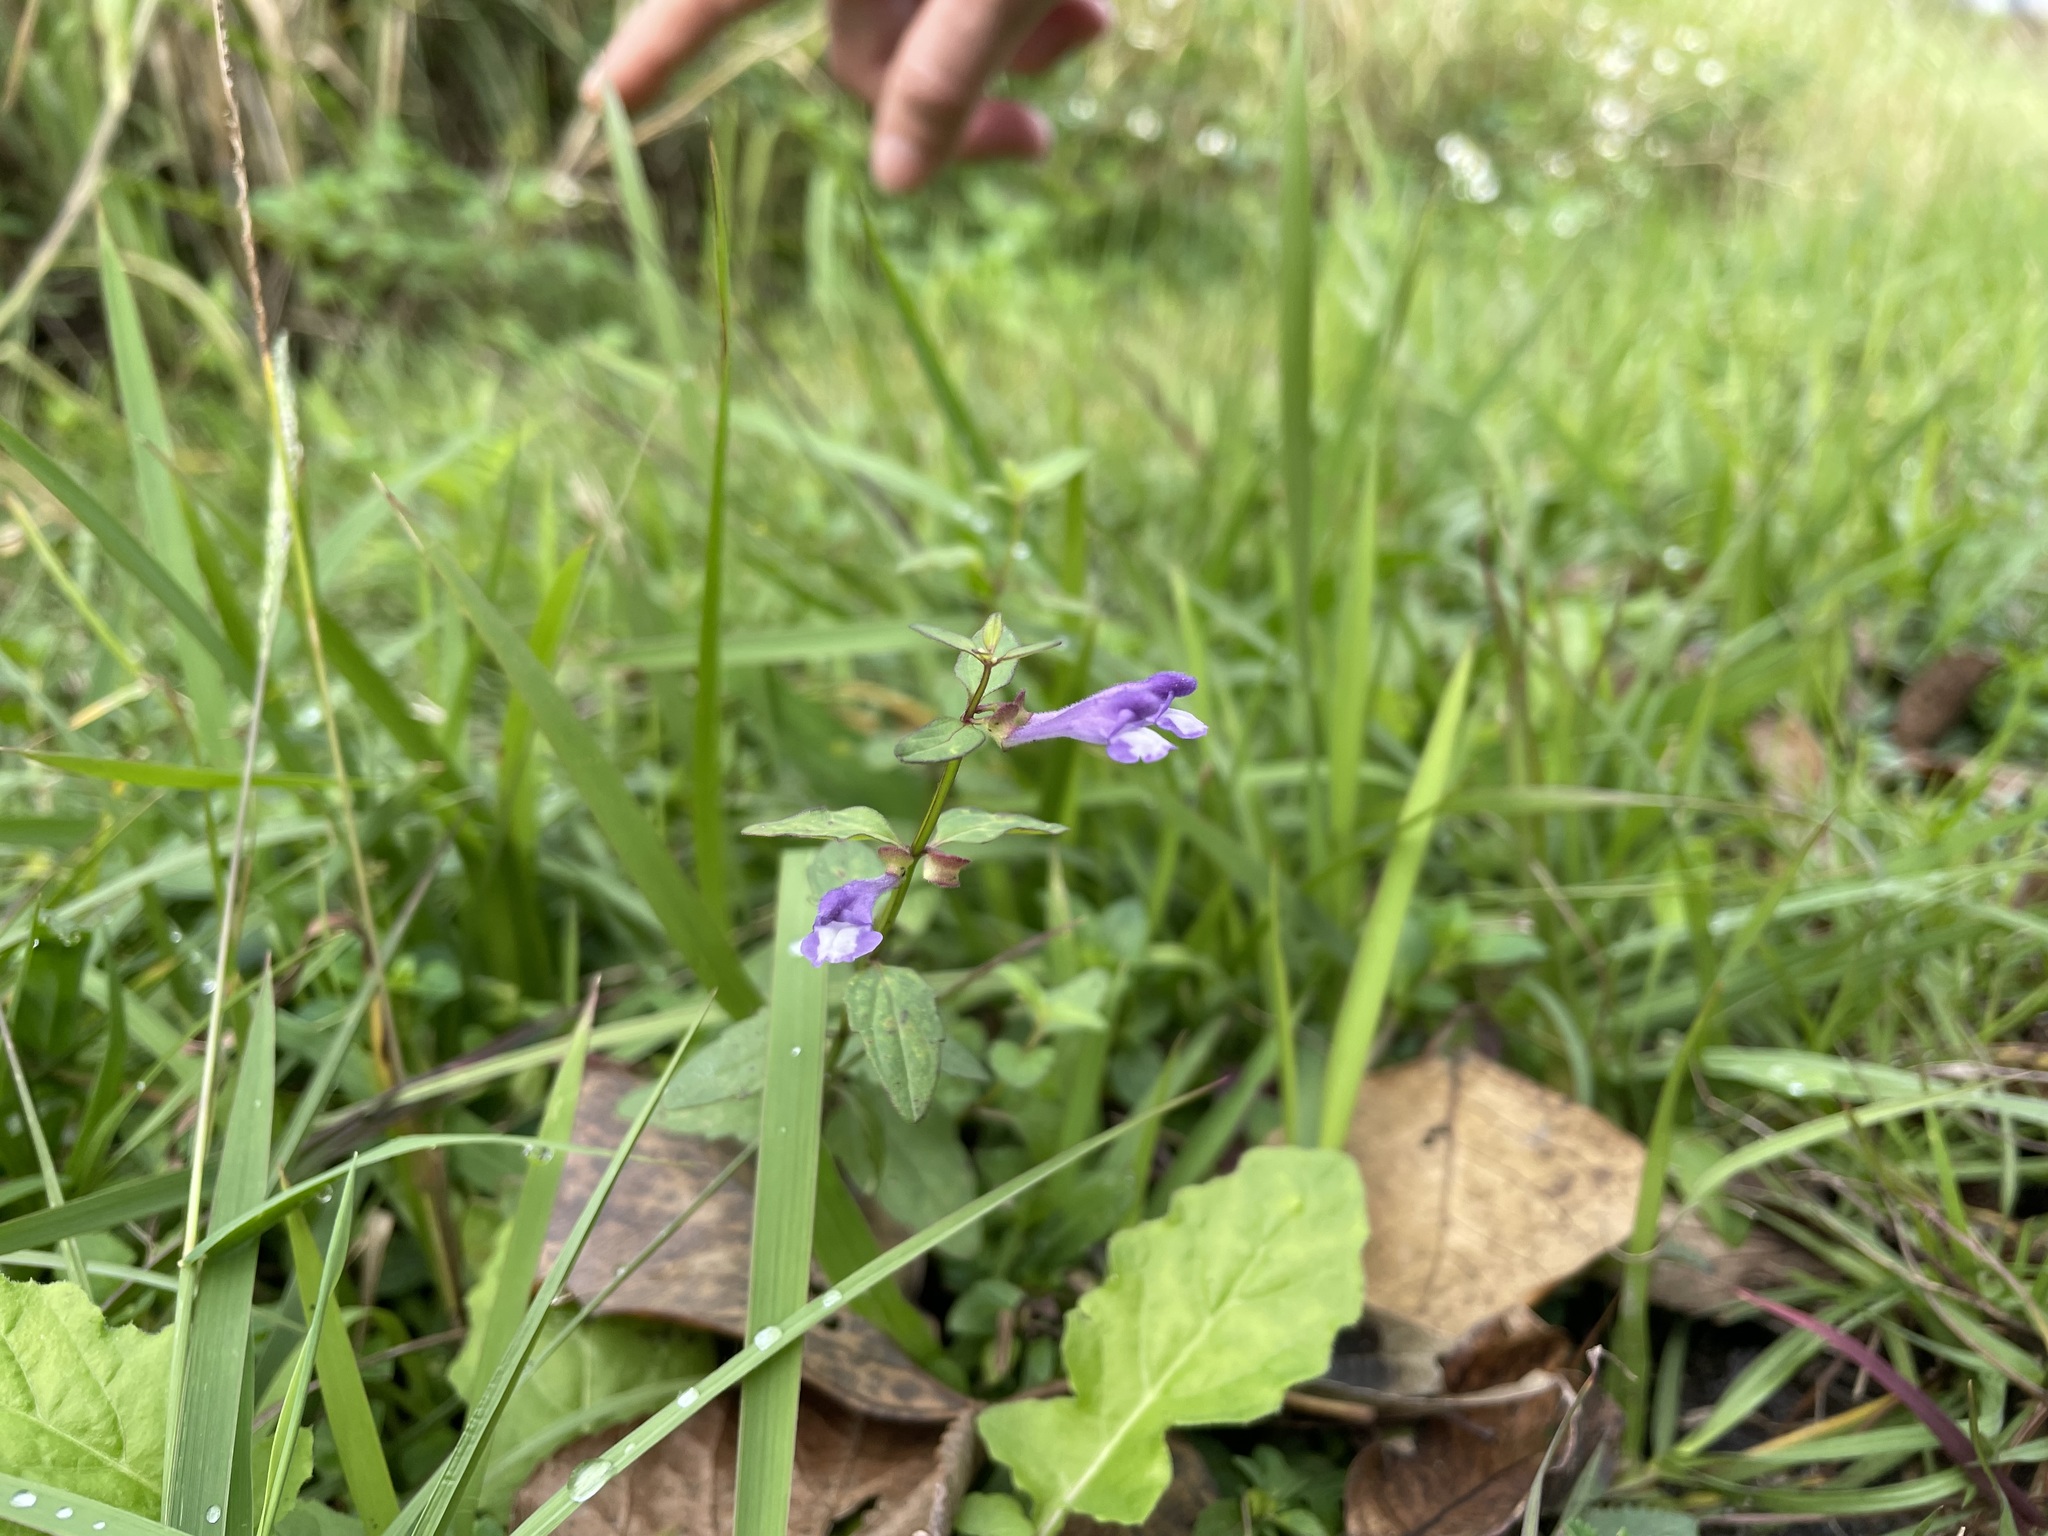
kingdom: Plantae
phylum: Tracheophyta
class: Magnoliopsida
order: Lamiales
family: Lamiaceae
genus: Scutellaria
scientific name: Scutellaria barbata
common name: Barbed skullcap
